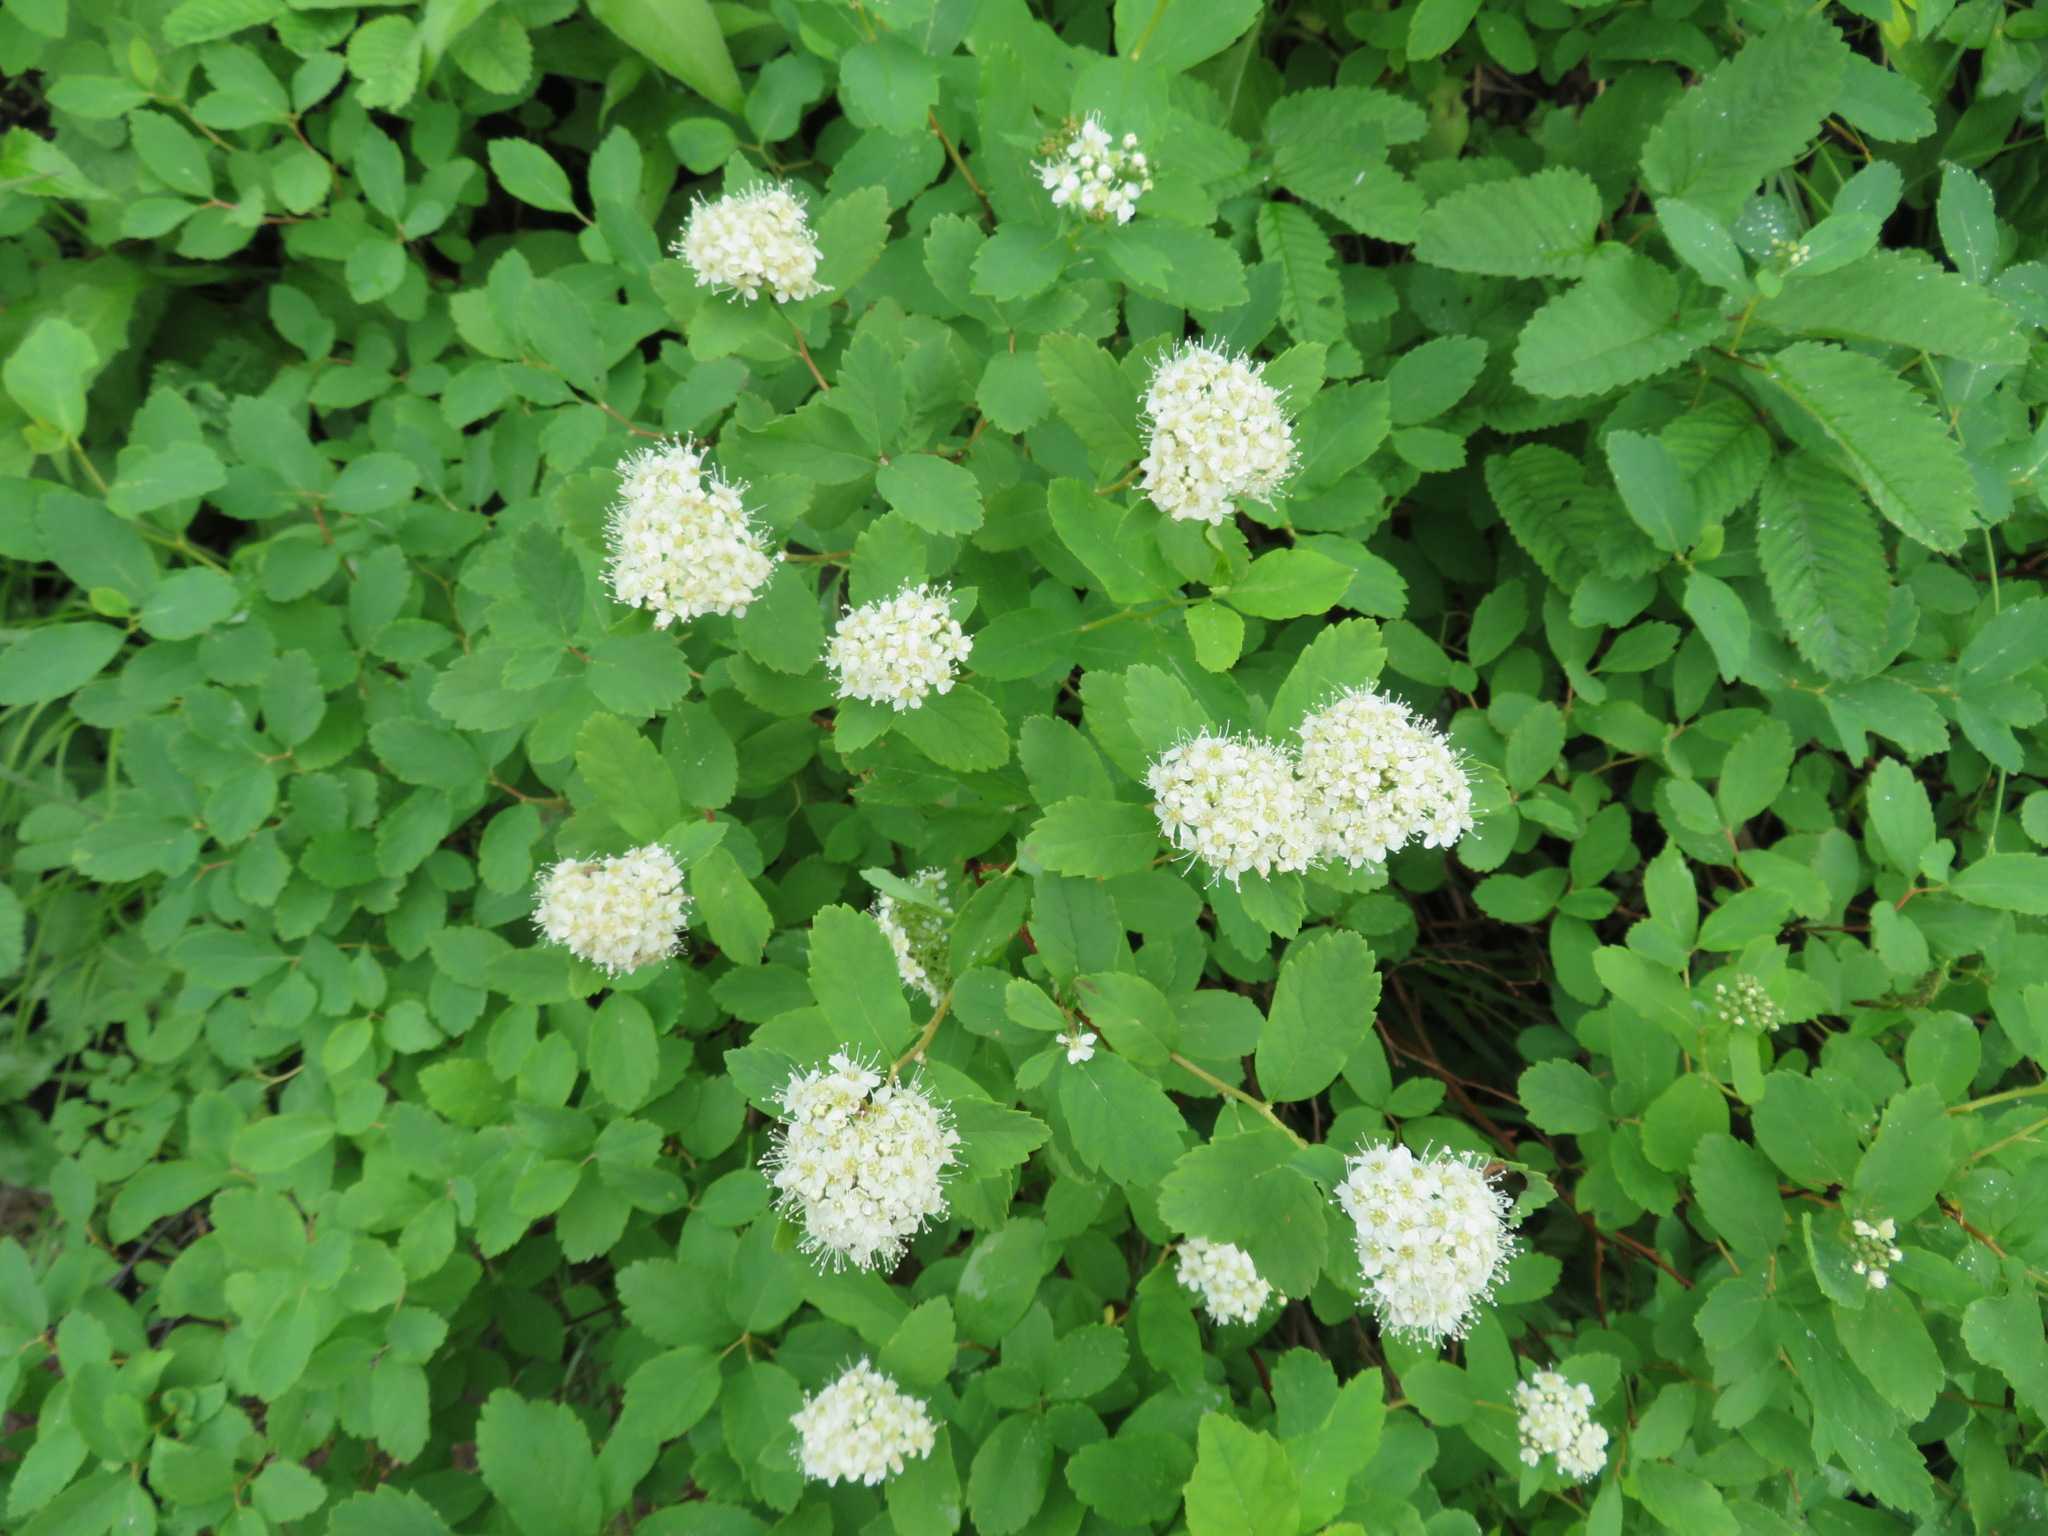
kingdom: Plantae
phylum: Tracheophyta
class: Magnoliopsida
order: Rosales
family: Rosaceae
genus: Spiraea
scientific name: Spiraea betulifolia
